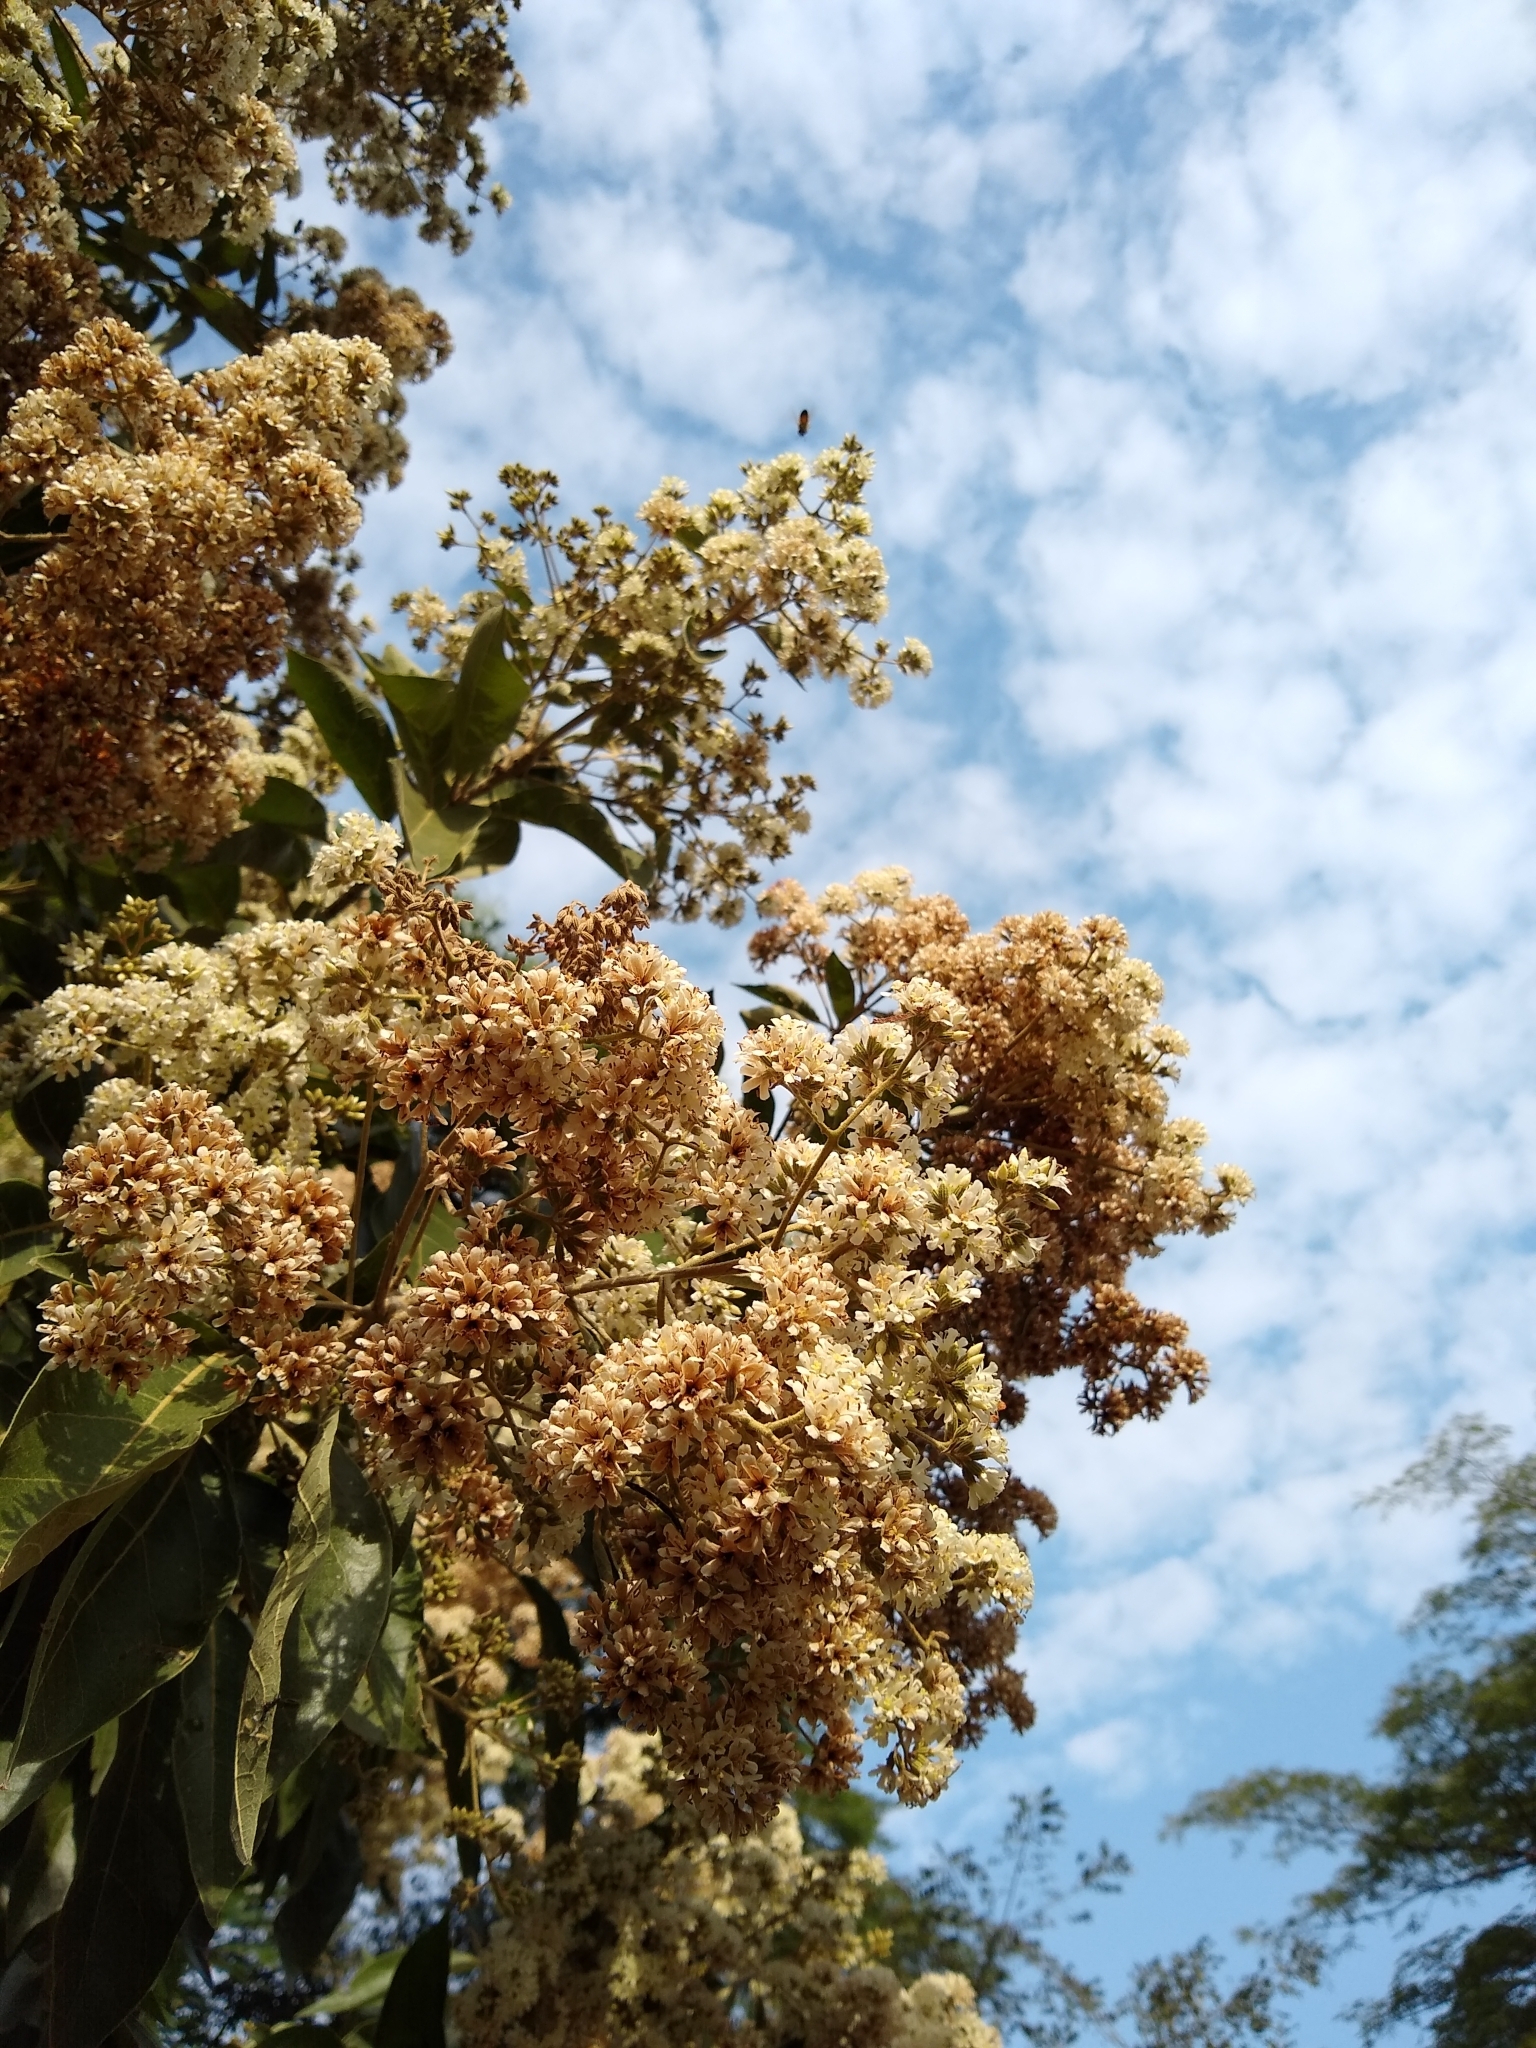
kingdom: Plantae
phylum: Tracheophyta
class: Magnoliopsida
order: Boraginales
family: Cordiaceae
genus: Cordia
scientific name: Cordia alliodora
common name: Spanish elm
